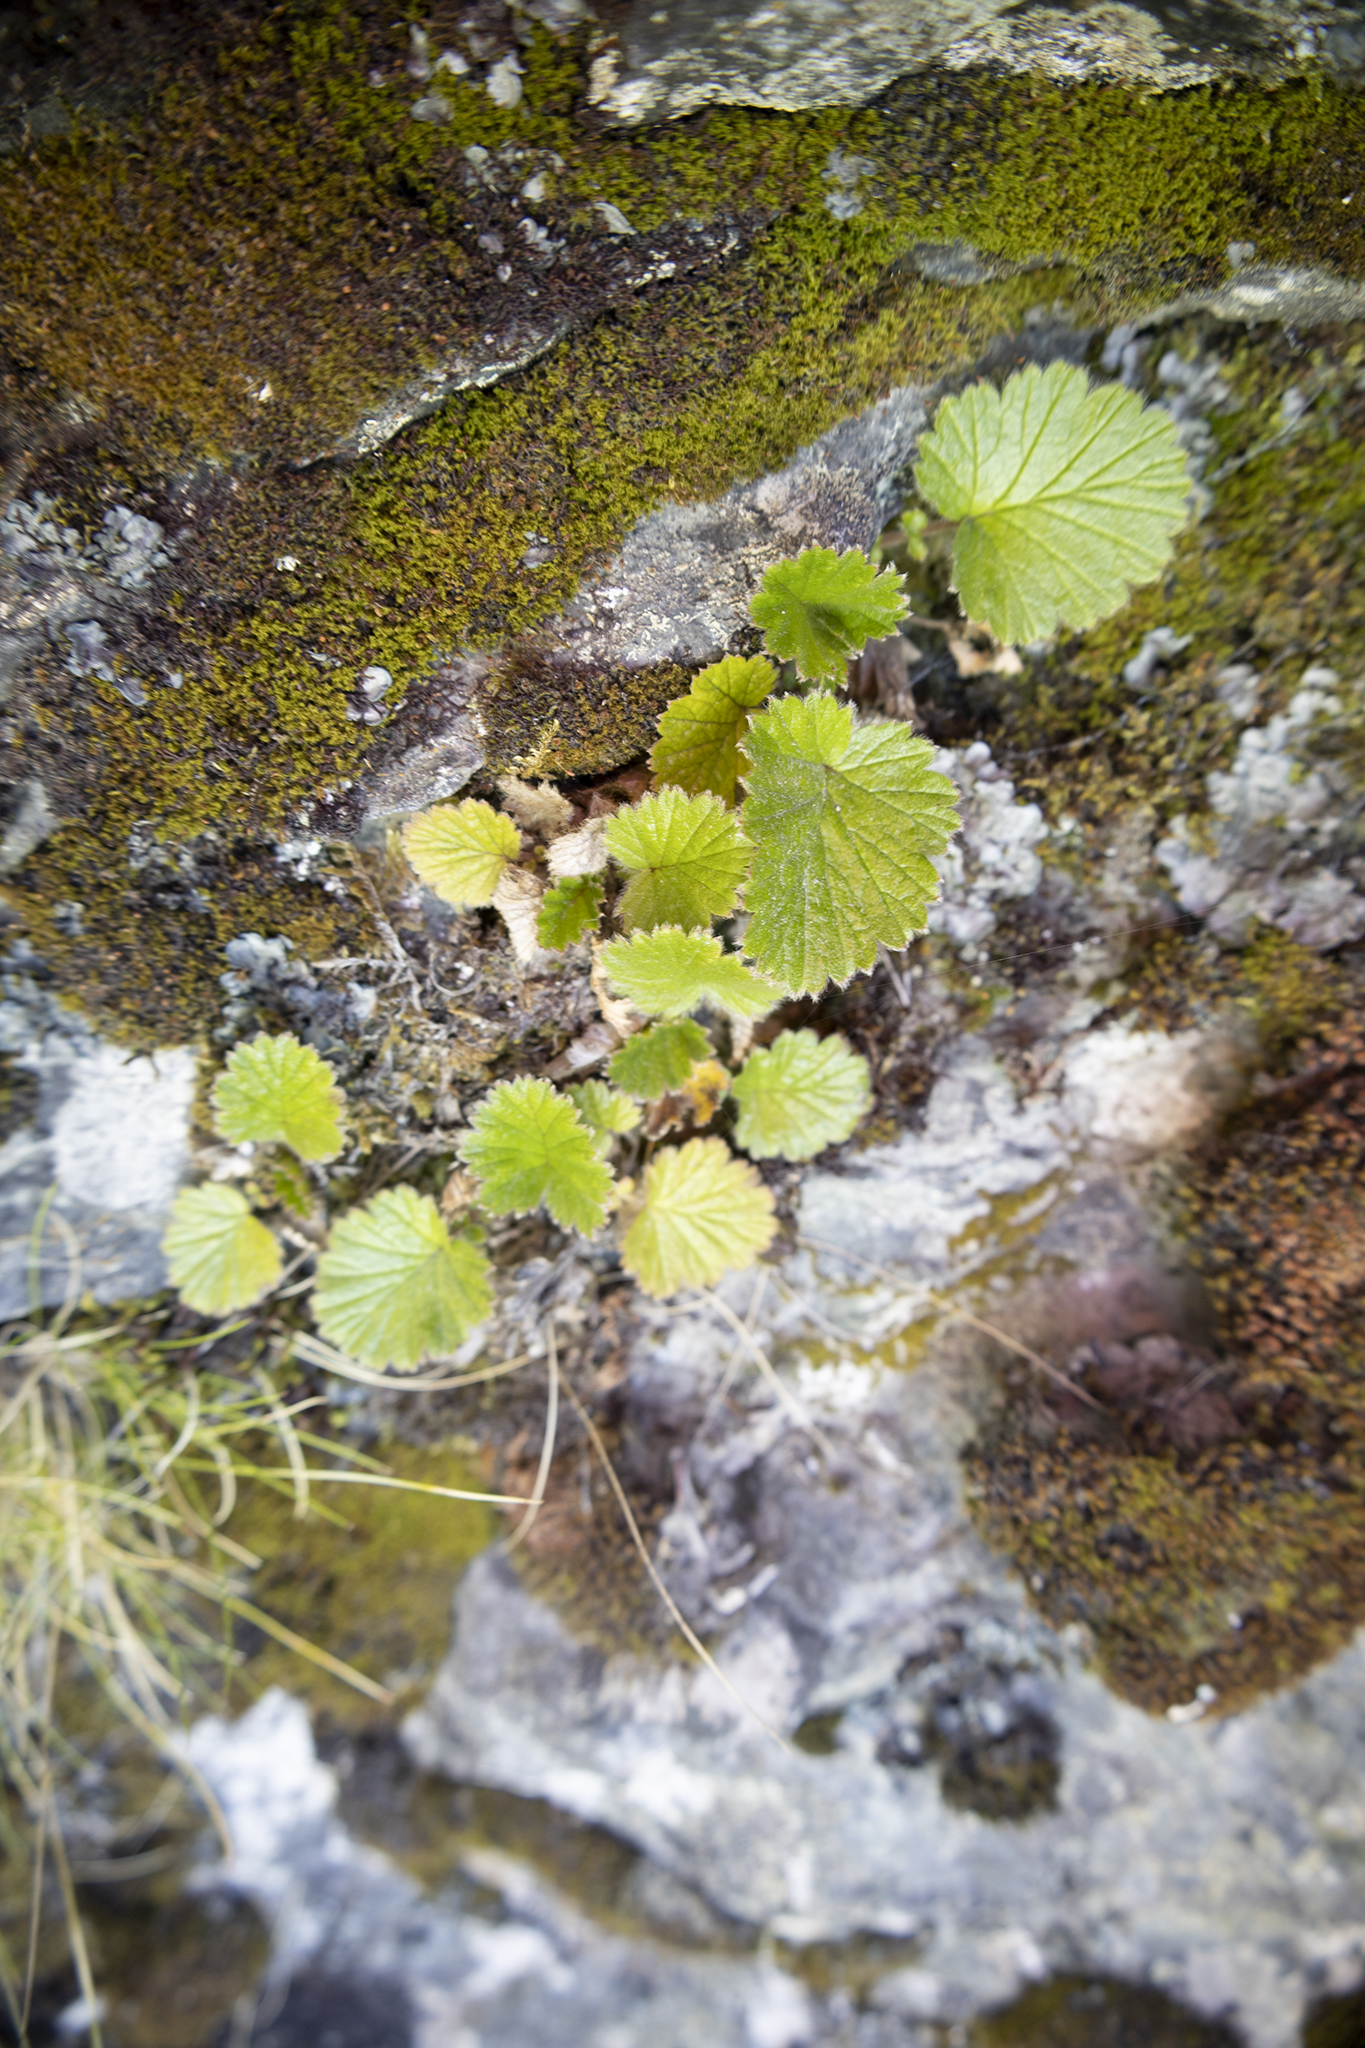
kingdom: Plantae
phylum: Tracheophyta
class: Magnoliopsida
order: Rosales
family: Rosaceae
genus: Geum
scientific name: Geum cockaynei
